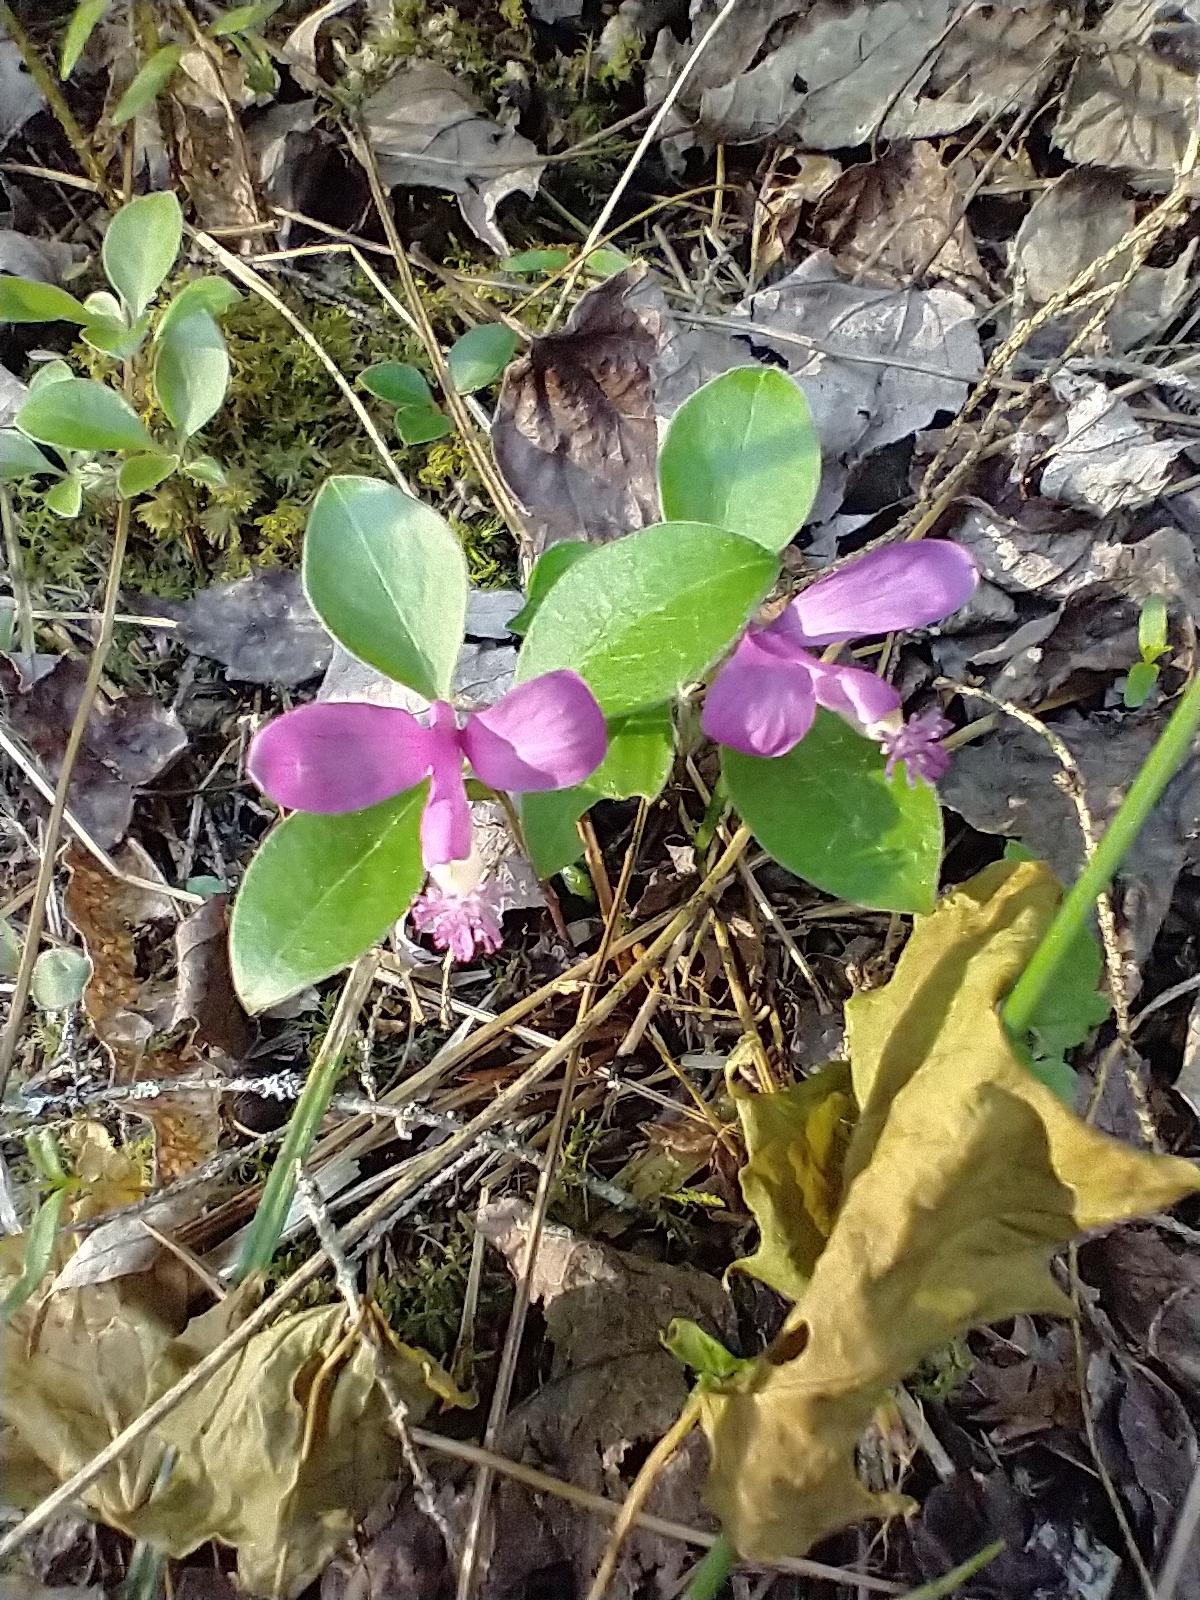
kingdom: Plantae
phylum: Tracheophyta
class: Magnoliopsida
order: Fabales
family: Polygalaceae
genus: Polygaloides
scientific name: Polygaloides paucifolia
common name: Bird-on-the-wing
